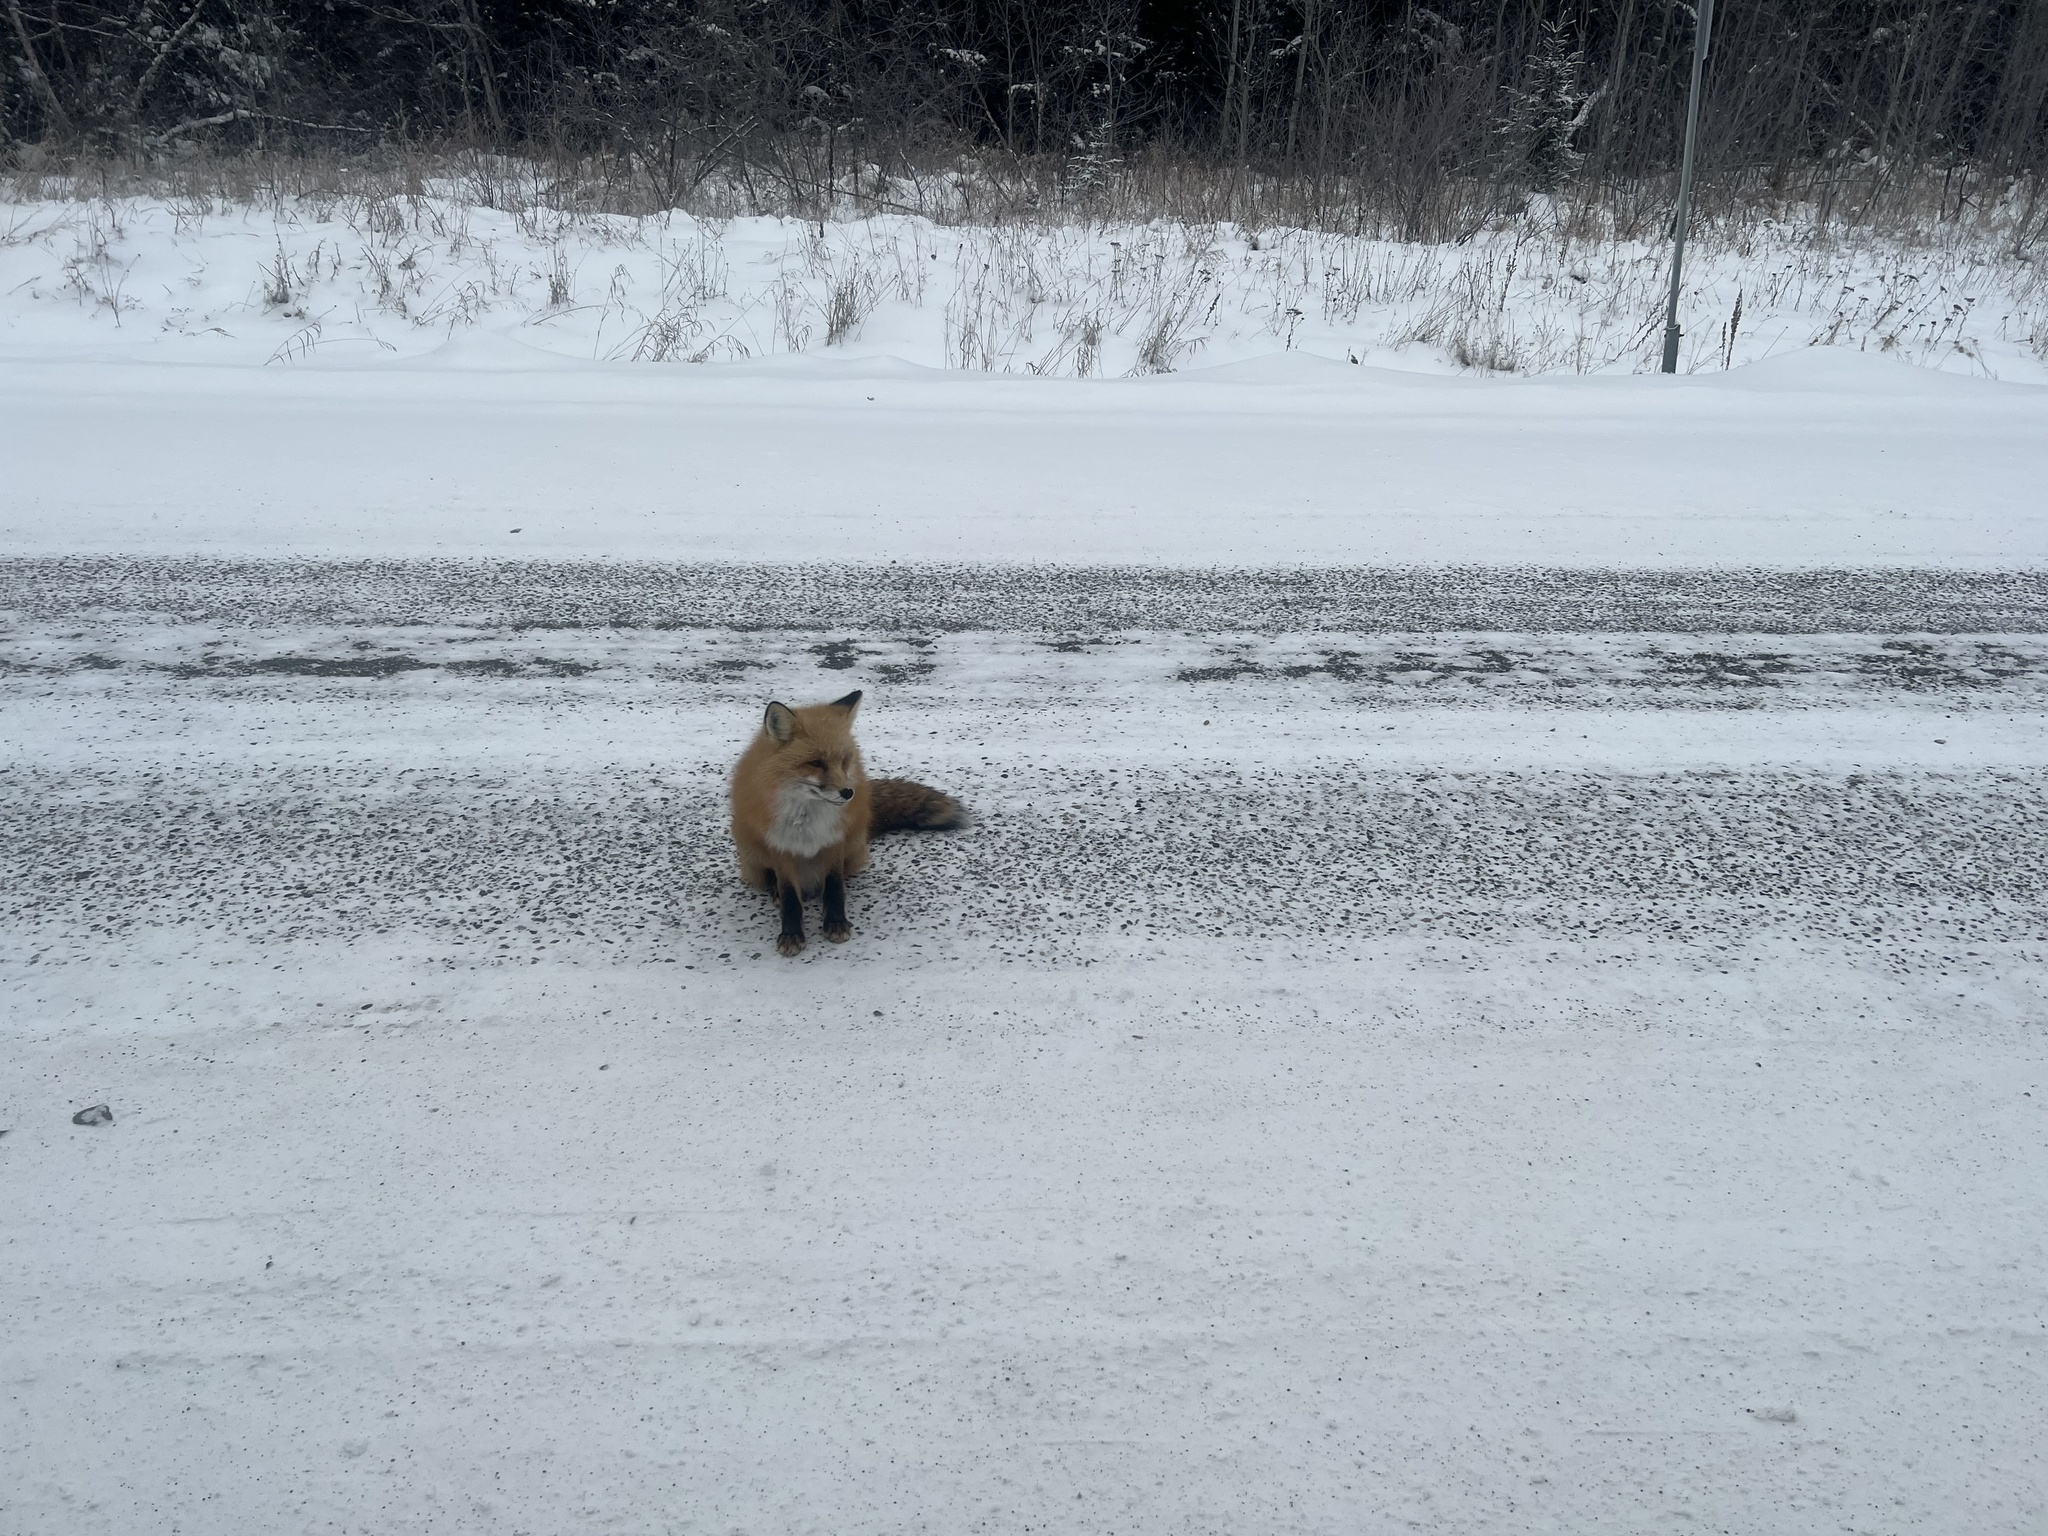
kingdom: Animalia
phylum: Chordata
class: Mammalia
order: Carnivora
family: Canidae
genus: Vulpes
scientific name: Vulpes vulpes
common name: Red fox
